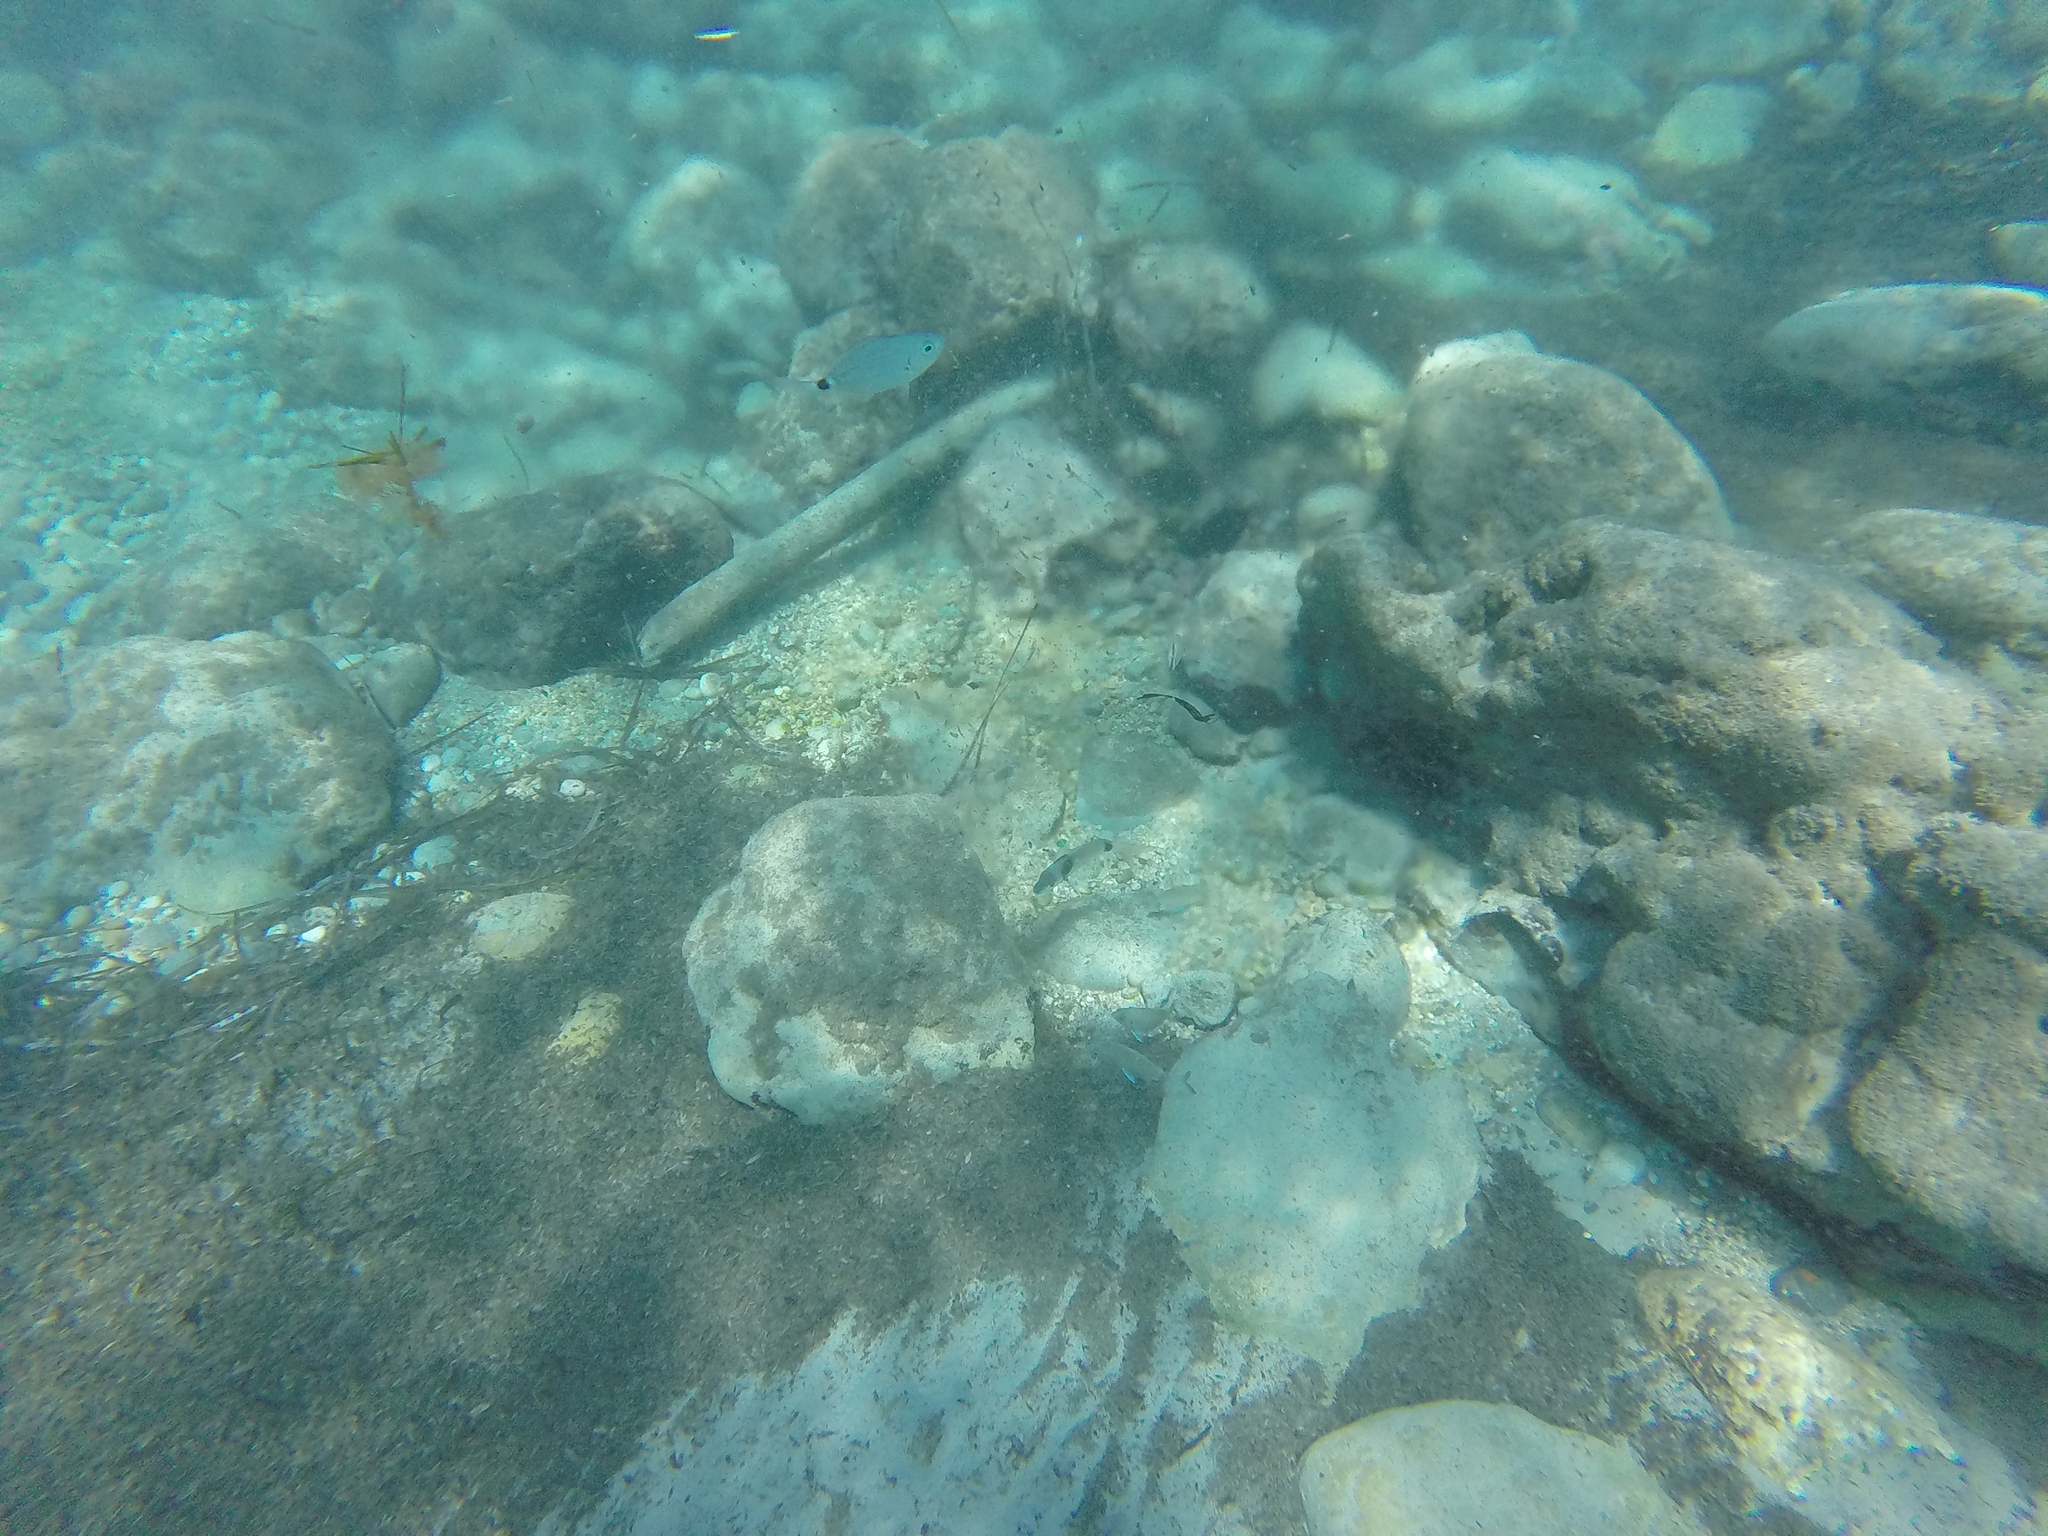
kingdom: Animalia
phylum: Chordata
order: Perciformes
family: Sparidae
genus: Oblada
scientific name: Oblada melanura
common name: Saddled seabream
